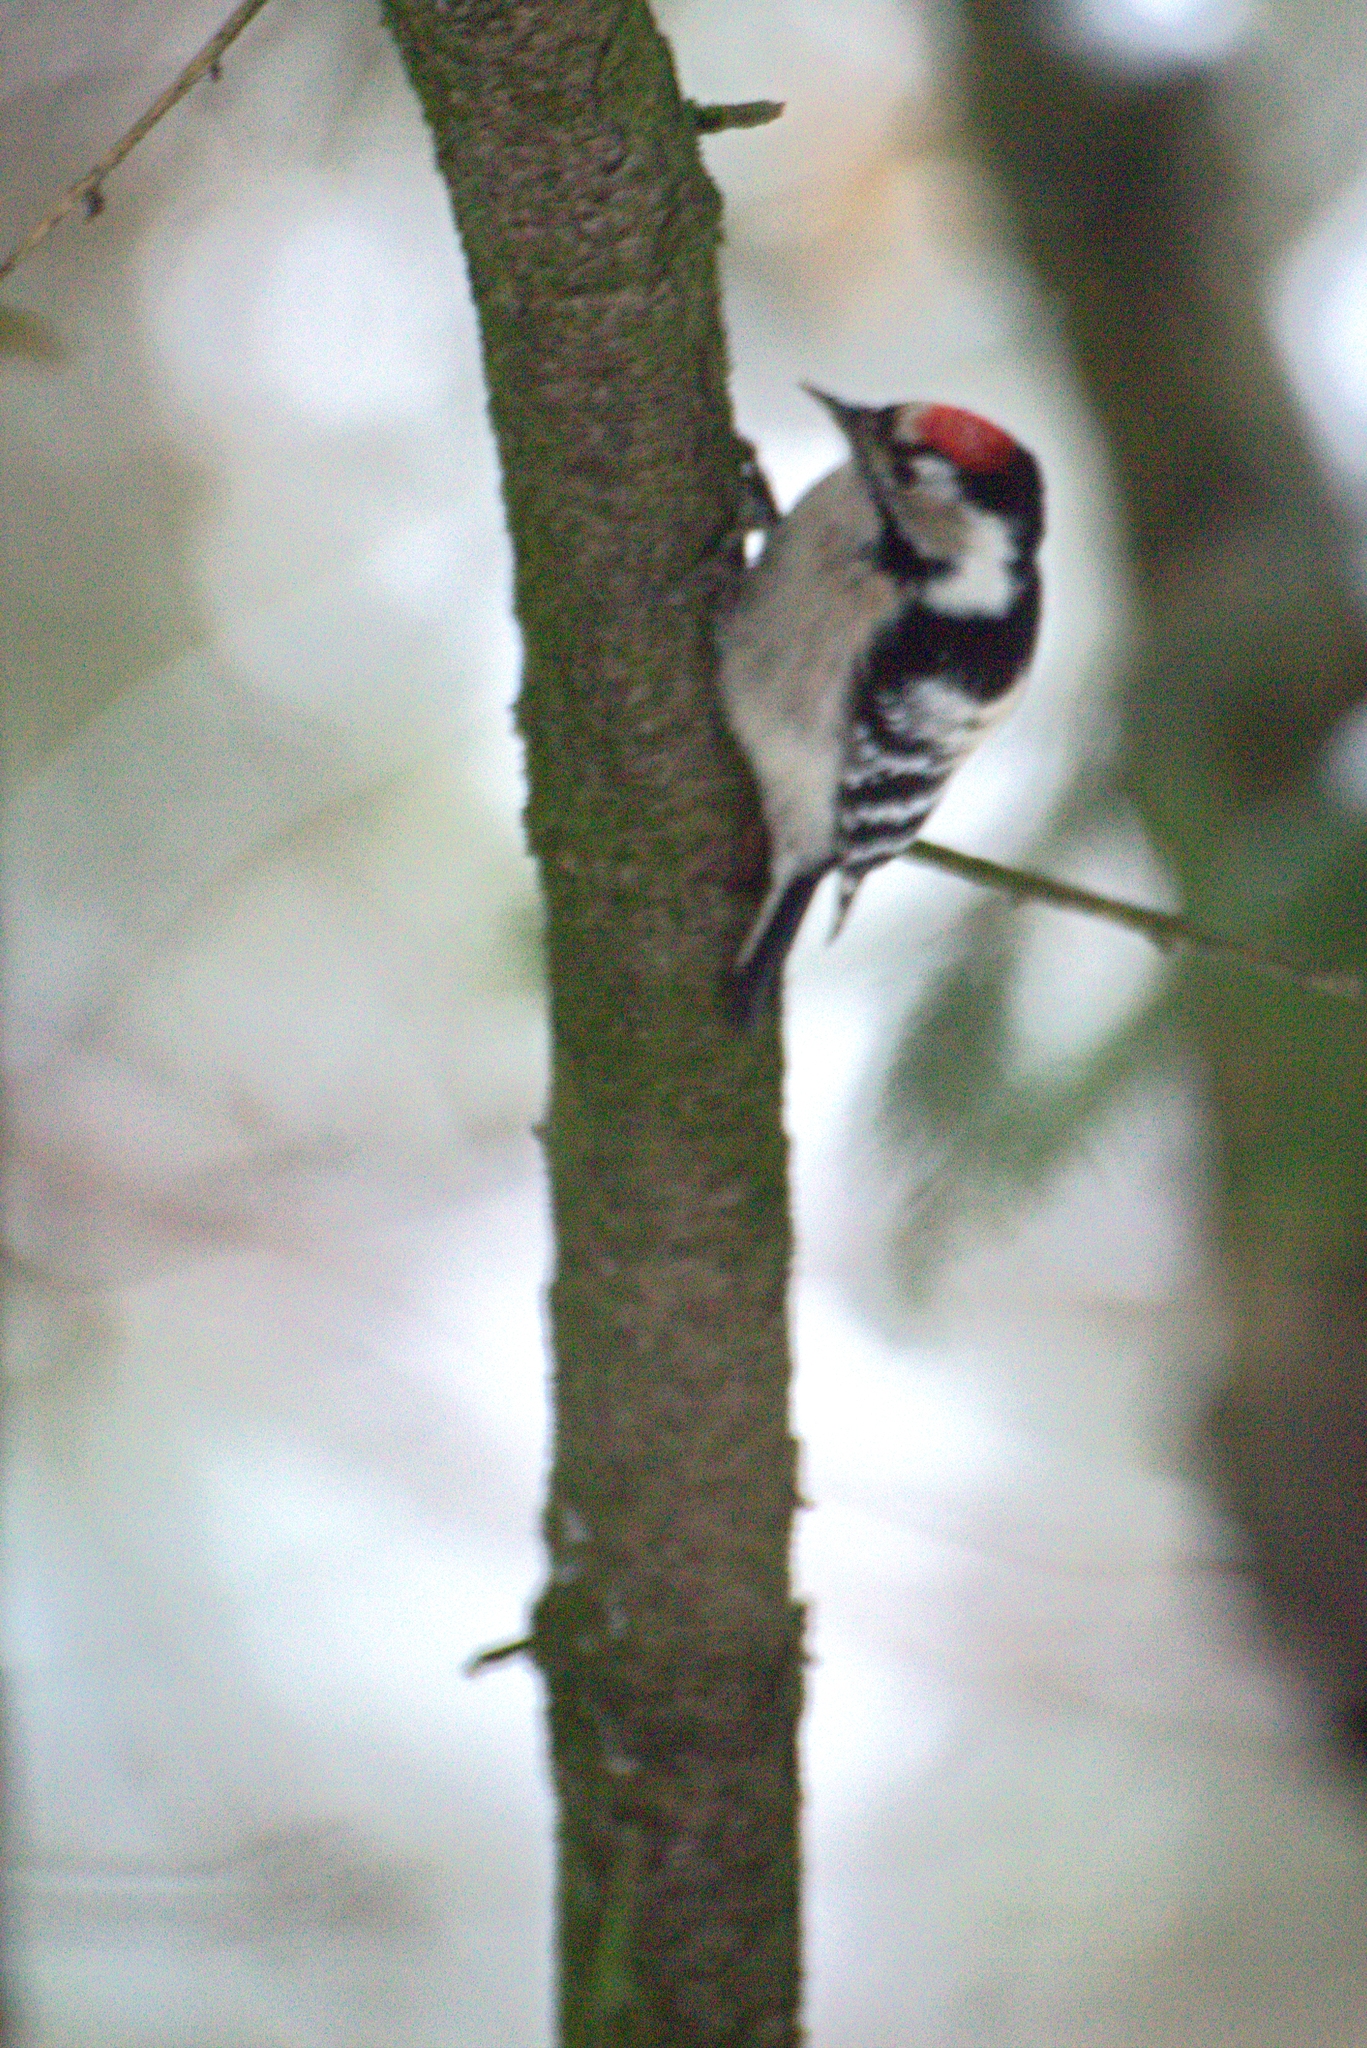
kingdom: Animalia
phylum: Chordata
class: Aves
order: Piciformes
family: Picidae
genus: Dryobates
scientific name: Dryobates minor
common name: Lesser spotted woodpecker
